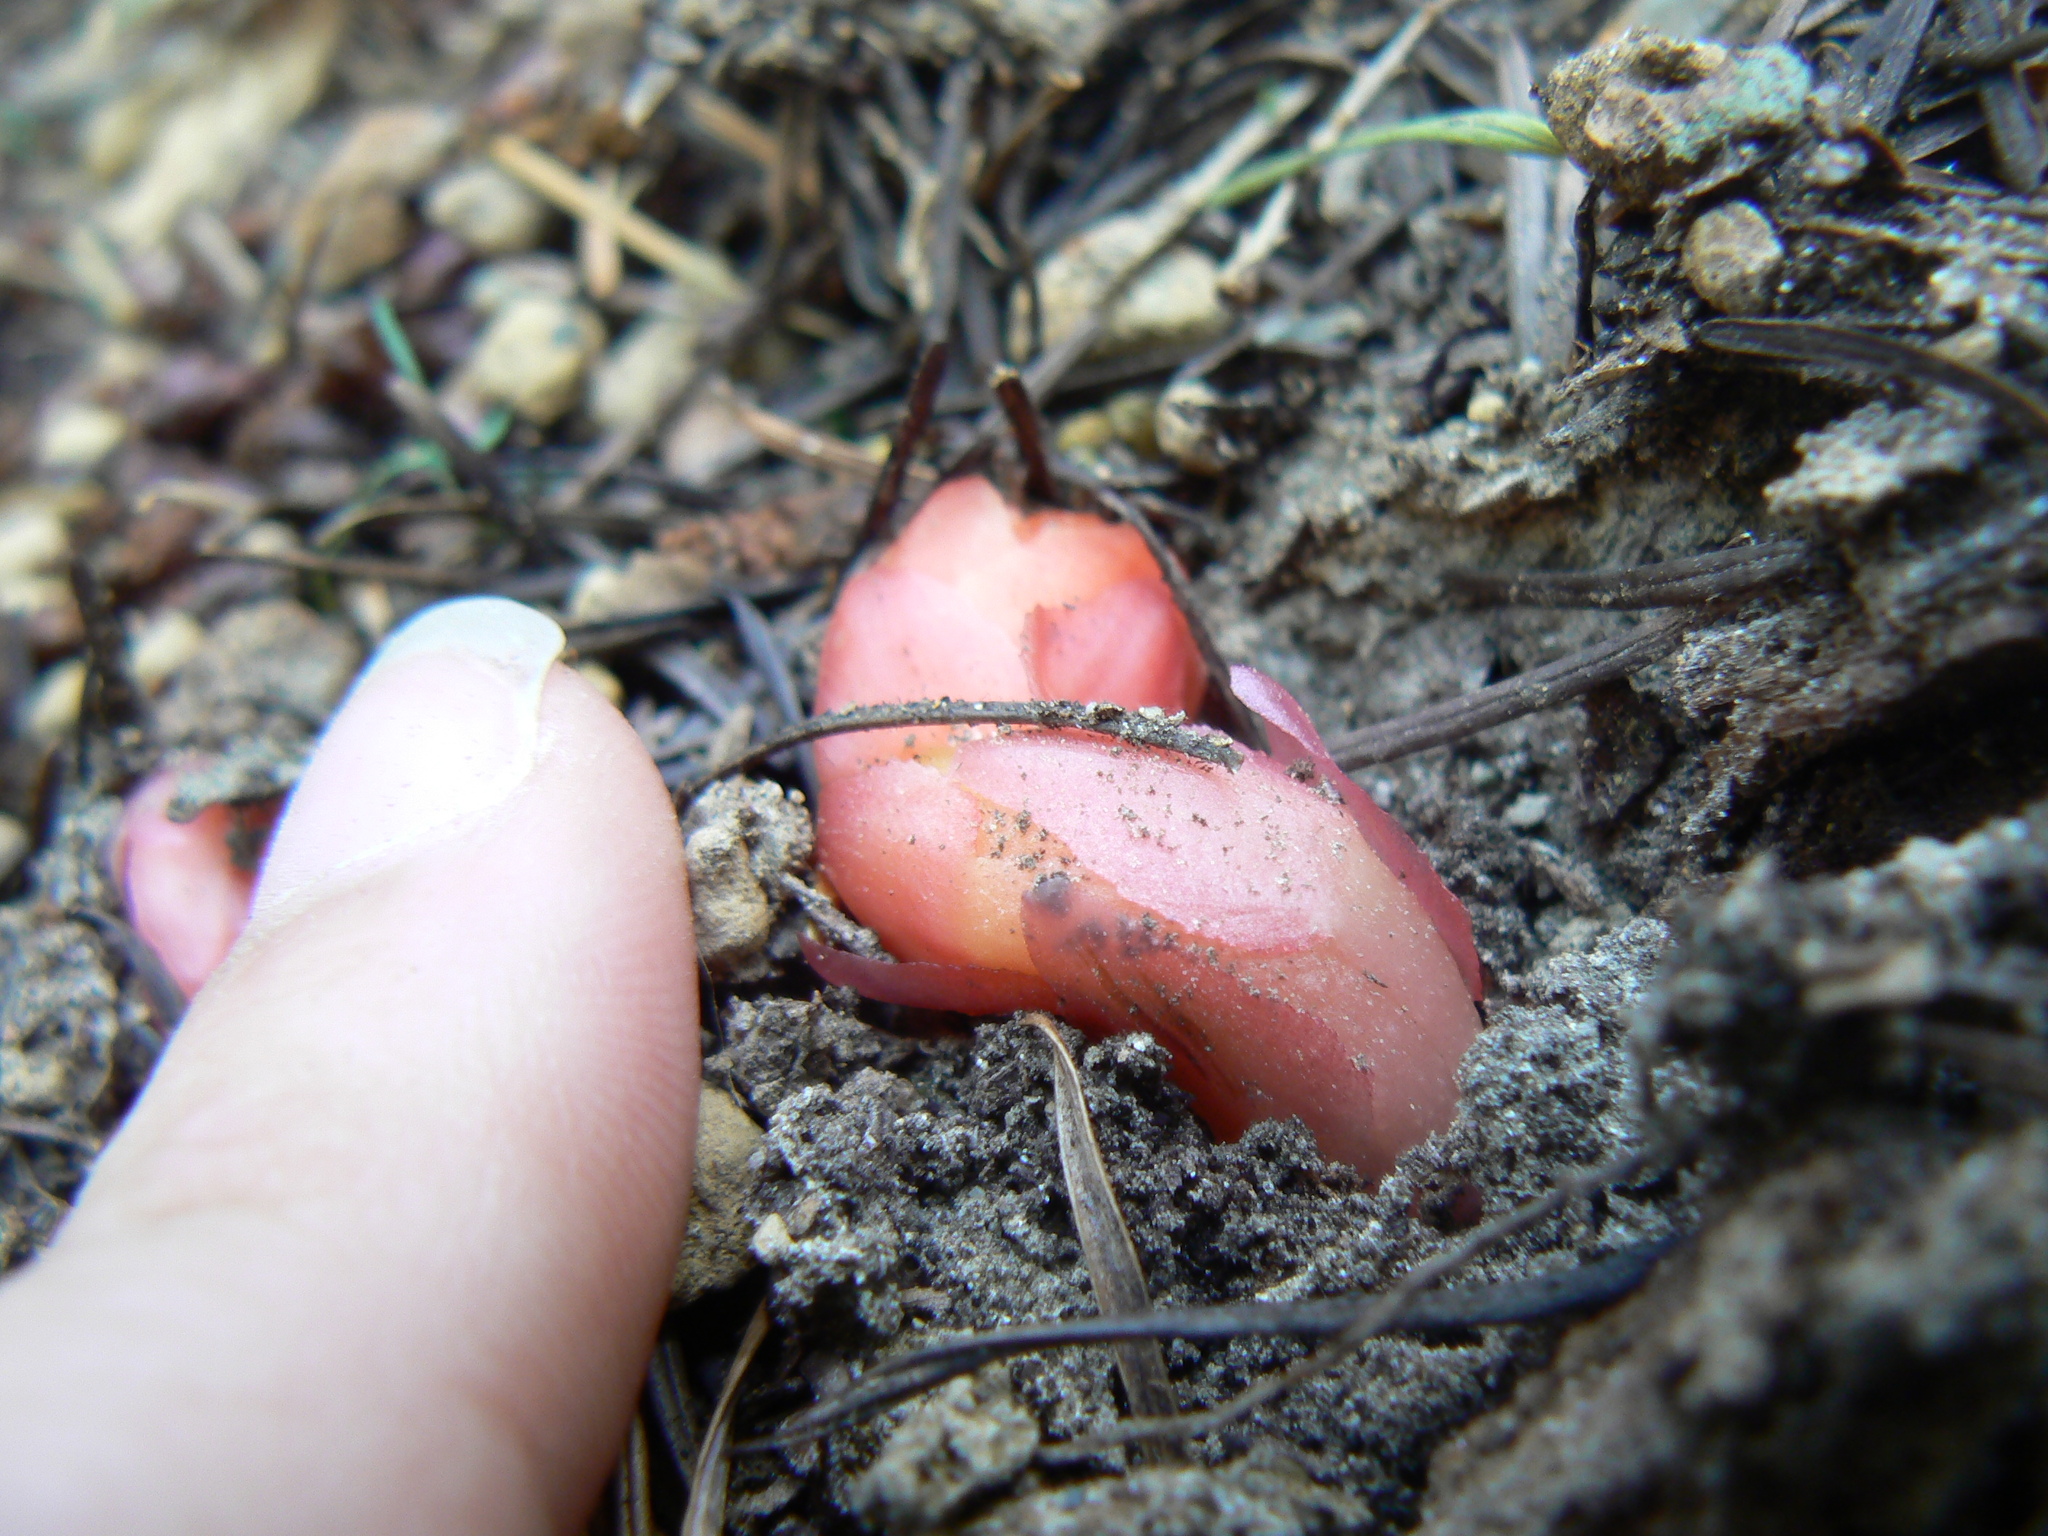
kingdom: Plantae
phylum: Tracheophyta
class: Magnoliopsida
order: Ericales
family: Ericaceae
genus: Hypopitys
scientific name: Hypopitys monotropa
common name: Yellow bird's-nest
